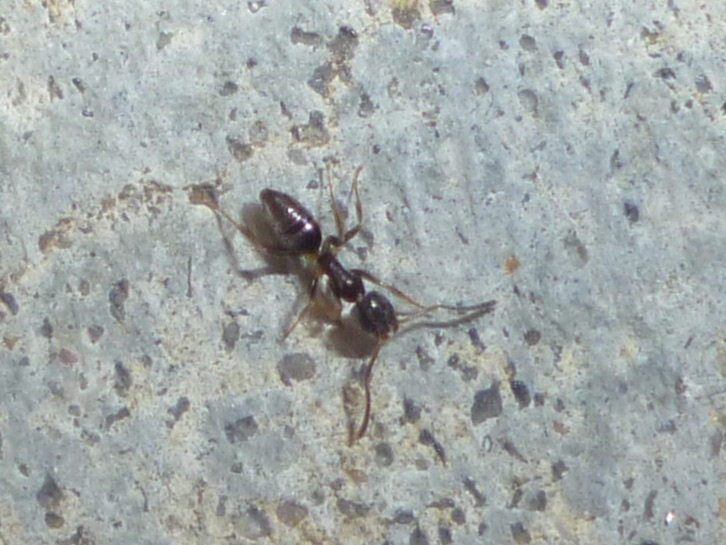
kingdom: Animalia
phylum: Arthropoda
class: Insecta
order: Hymenoptera
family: Formicidae
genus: Tapinoma
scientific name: Tapinoma sessile
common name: Odorous house ant
